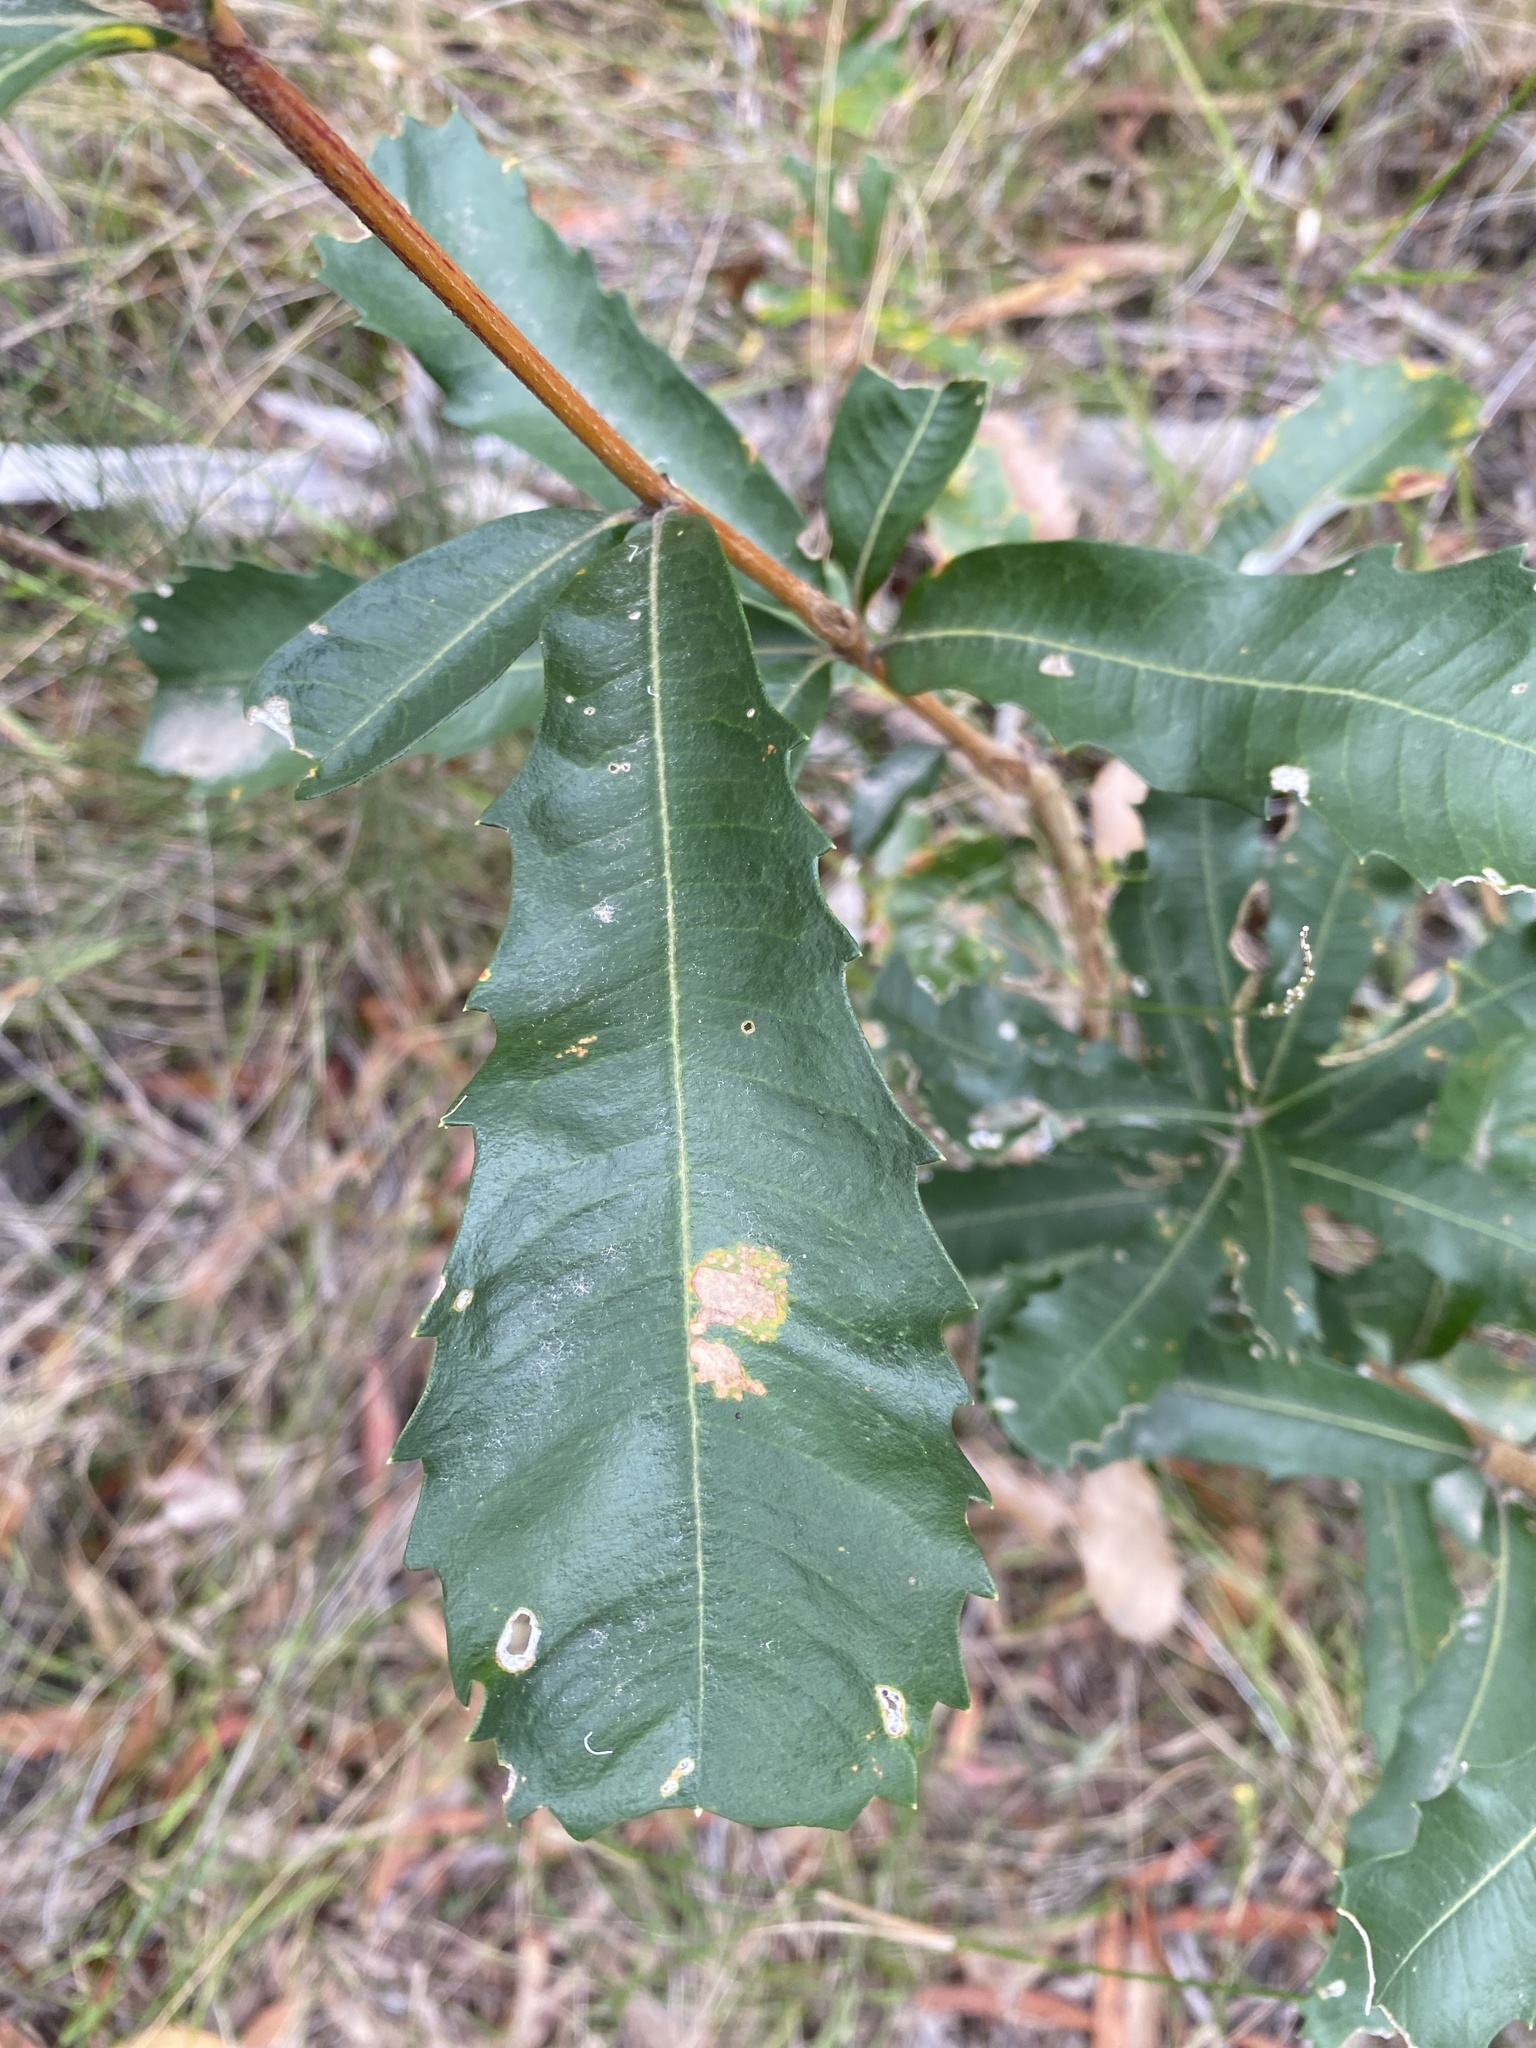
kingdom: Plantae
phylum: Tracheophyta
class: Magnoliopsida
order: Proteales
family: Proteaceae
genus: Banksia
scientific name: Banksia integrifolia
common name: White-honeysuckle
